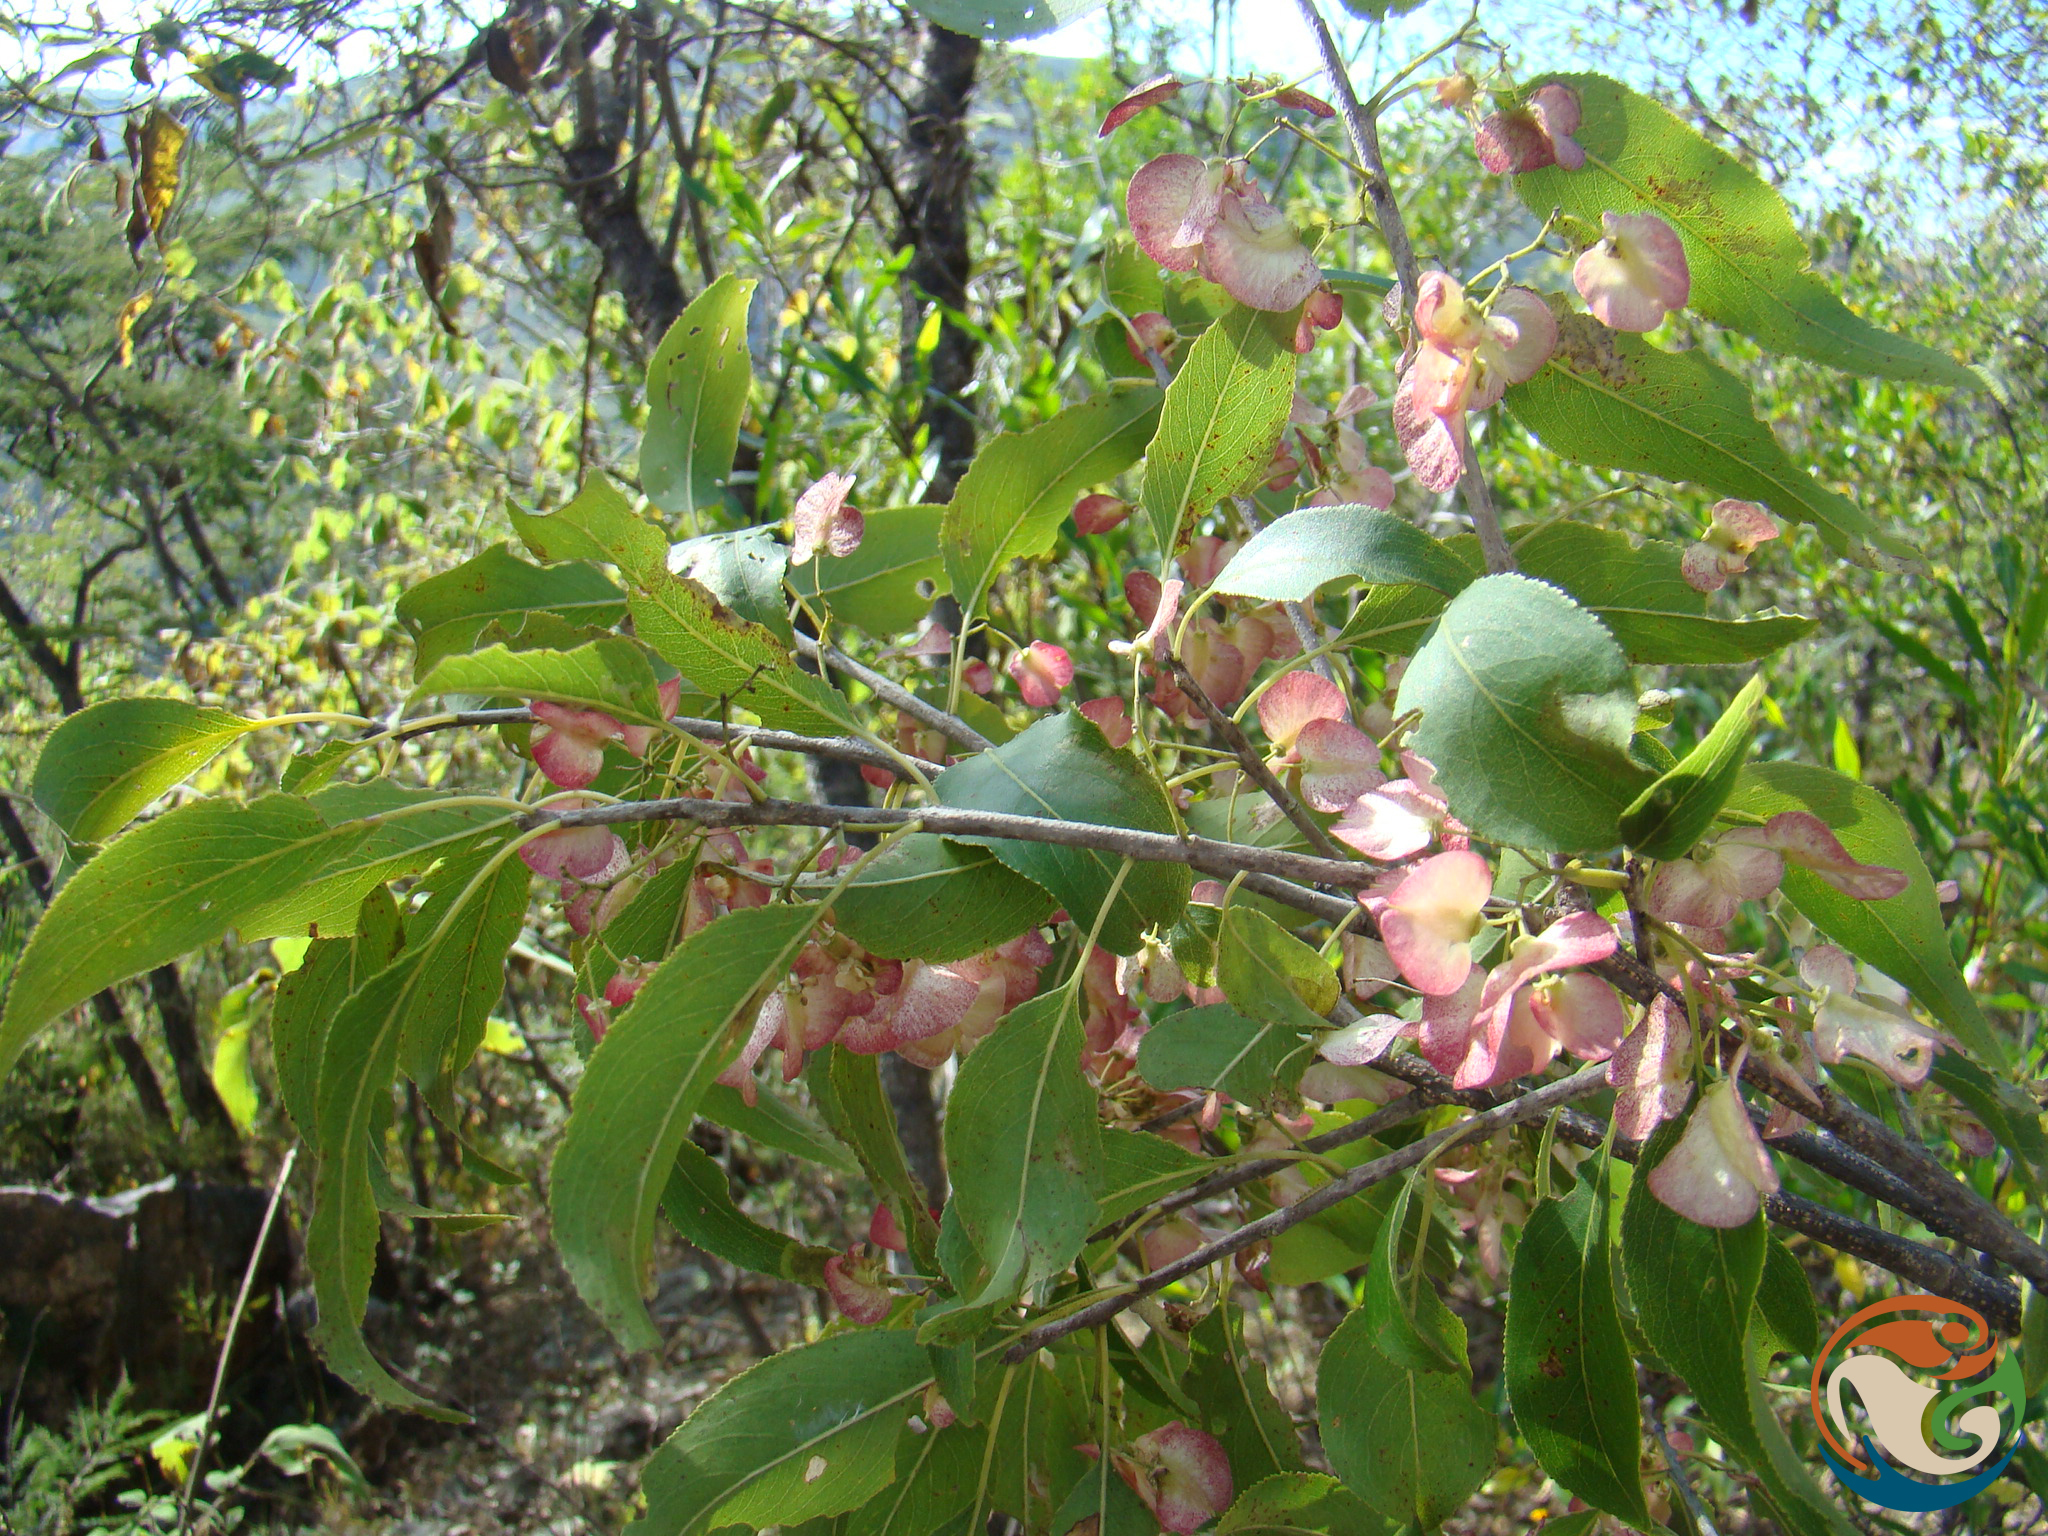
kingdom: Plantae
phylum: Tracheophyta
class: Magnoliopsida
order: Celastrales
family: Celastraceae
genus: Wimmeria
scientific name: Wimmeria serrulata
